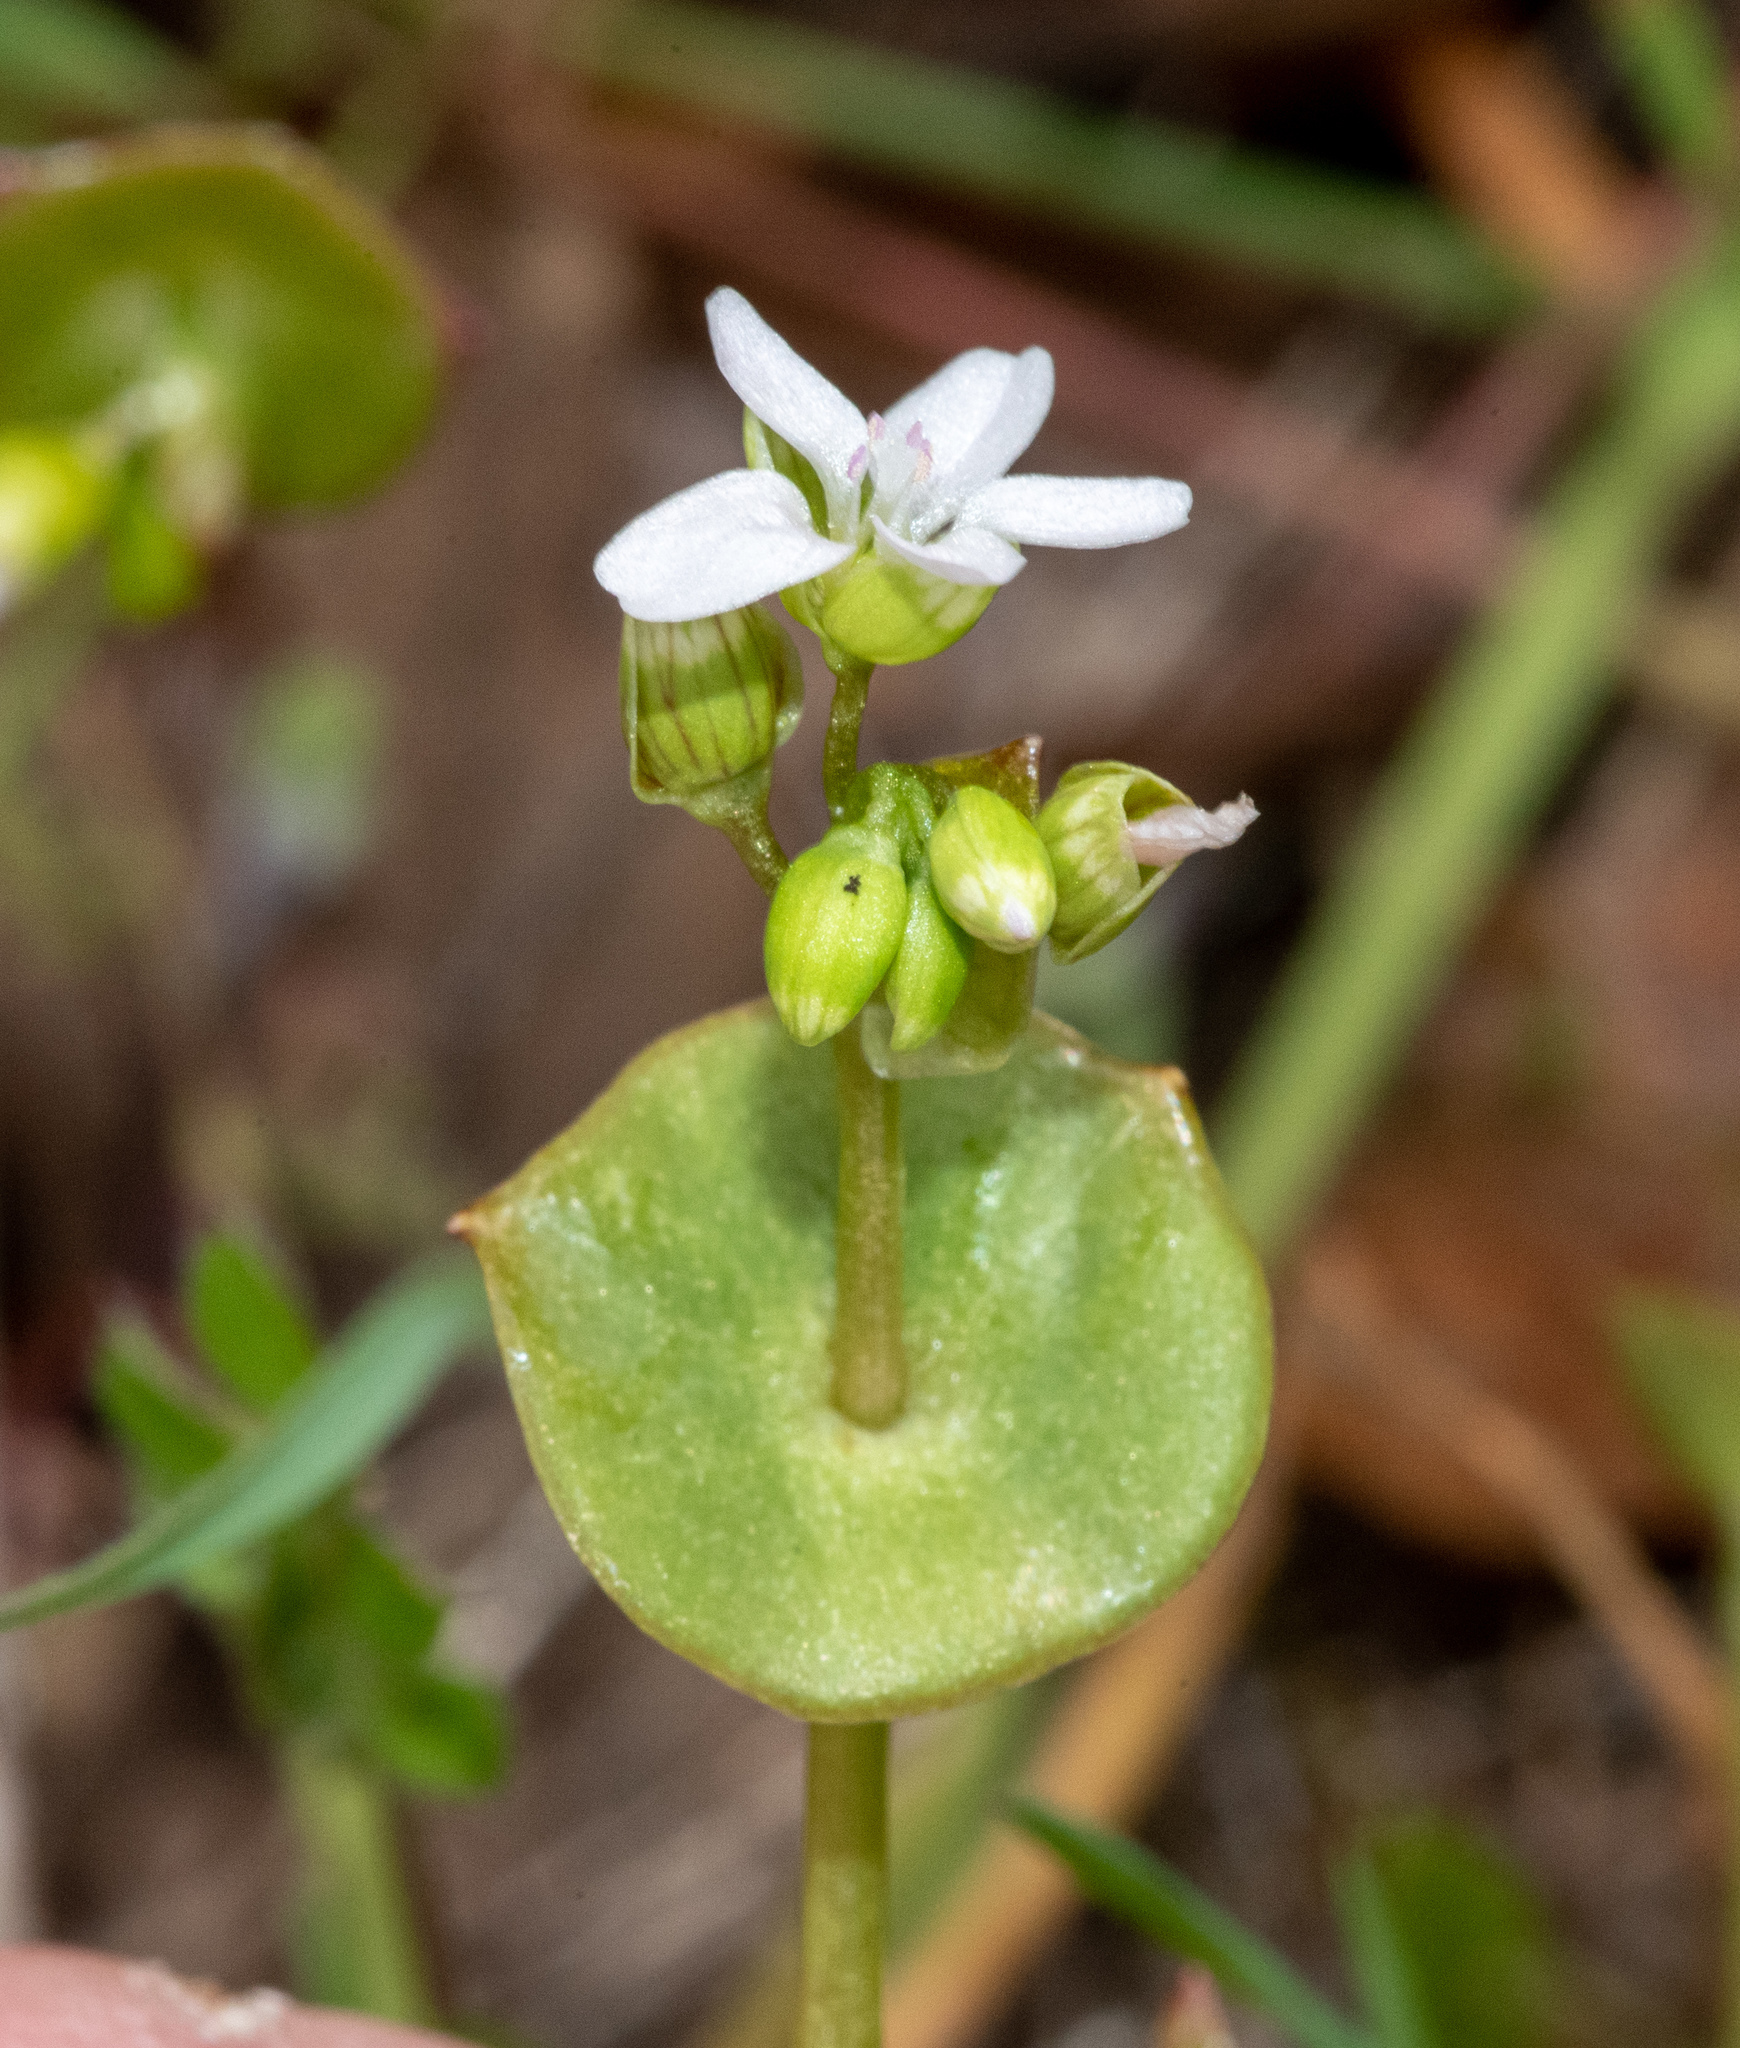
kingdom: Plantae
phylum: Tracheophyta
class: Magnoliopsida
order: Caryophyllales
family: Montiaceae
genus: Claytonia
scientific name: Claytonia parviflora
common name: Indian-lettuce
